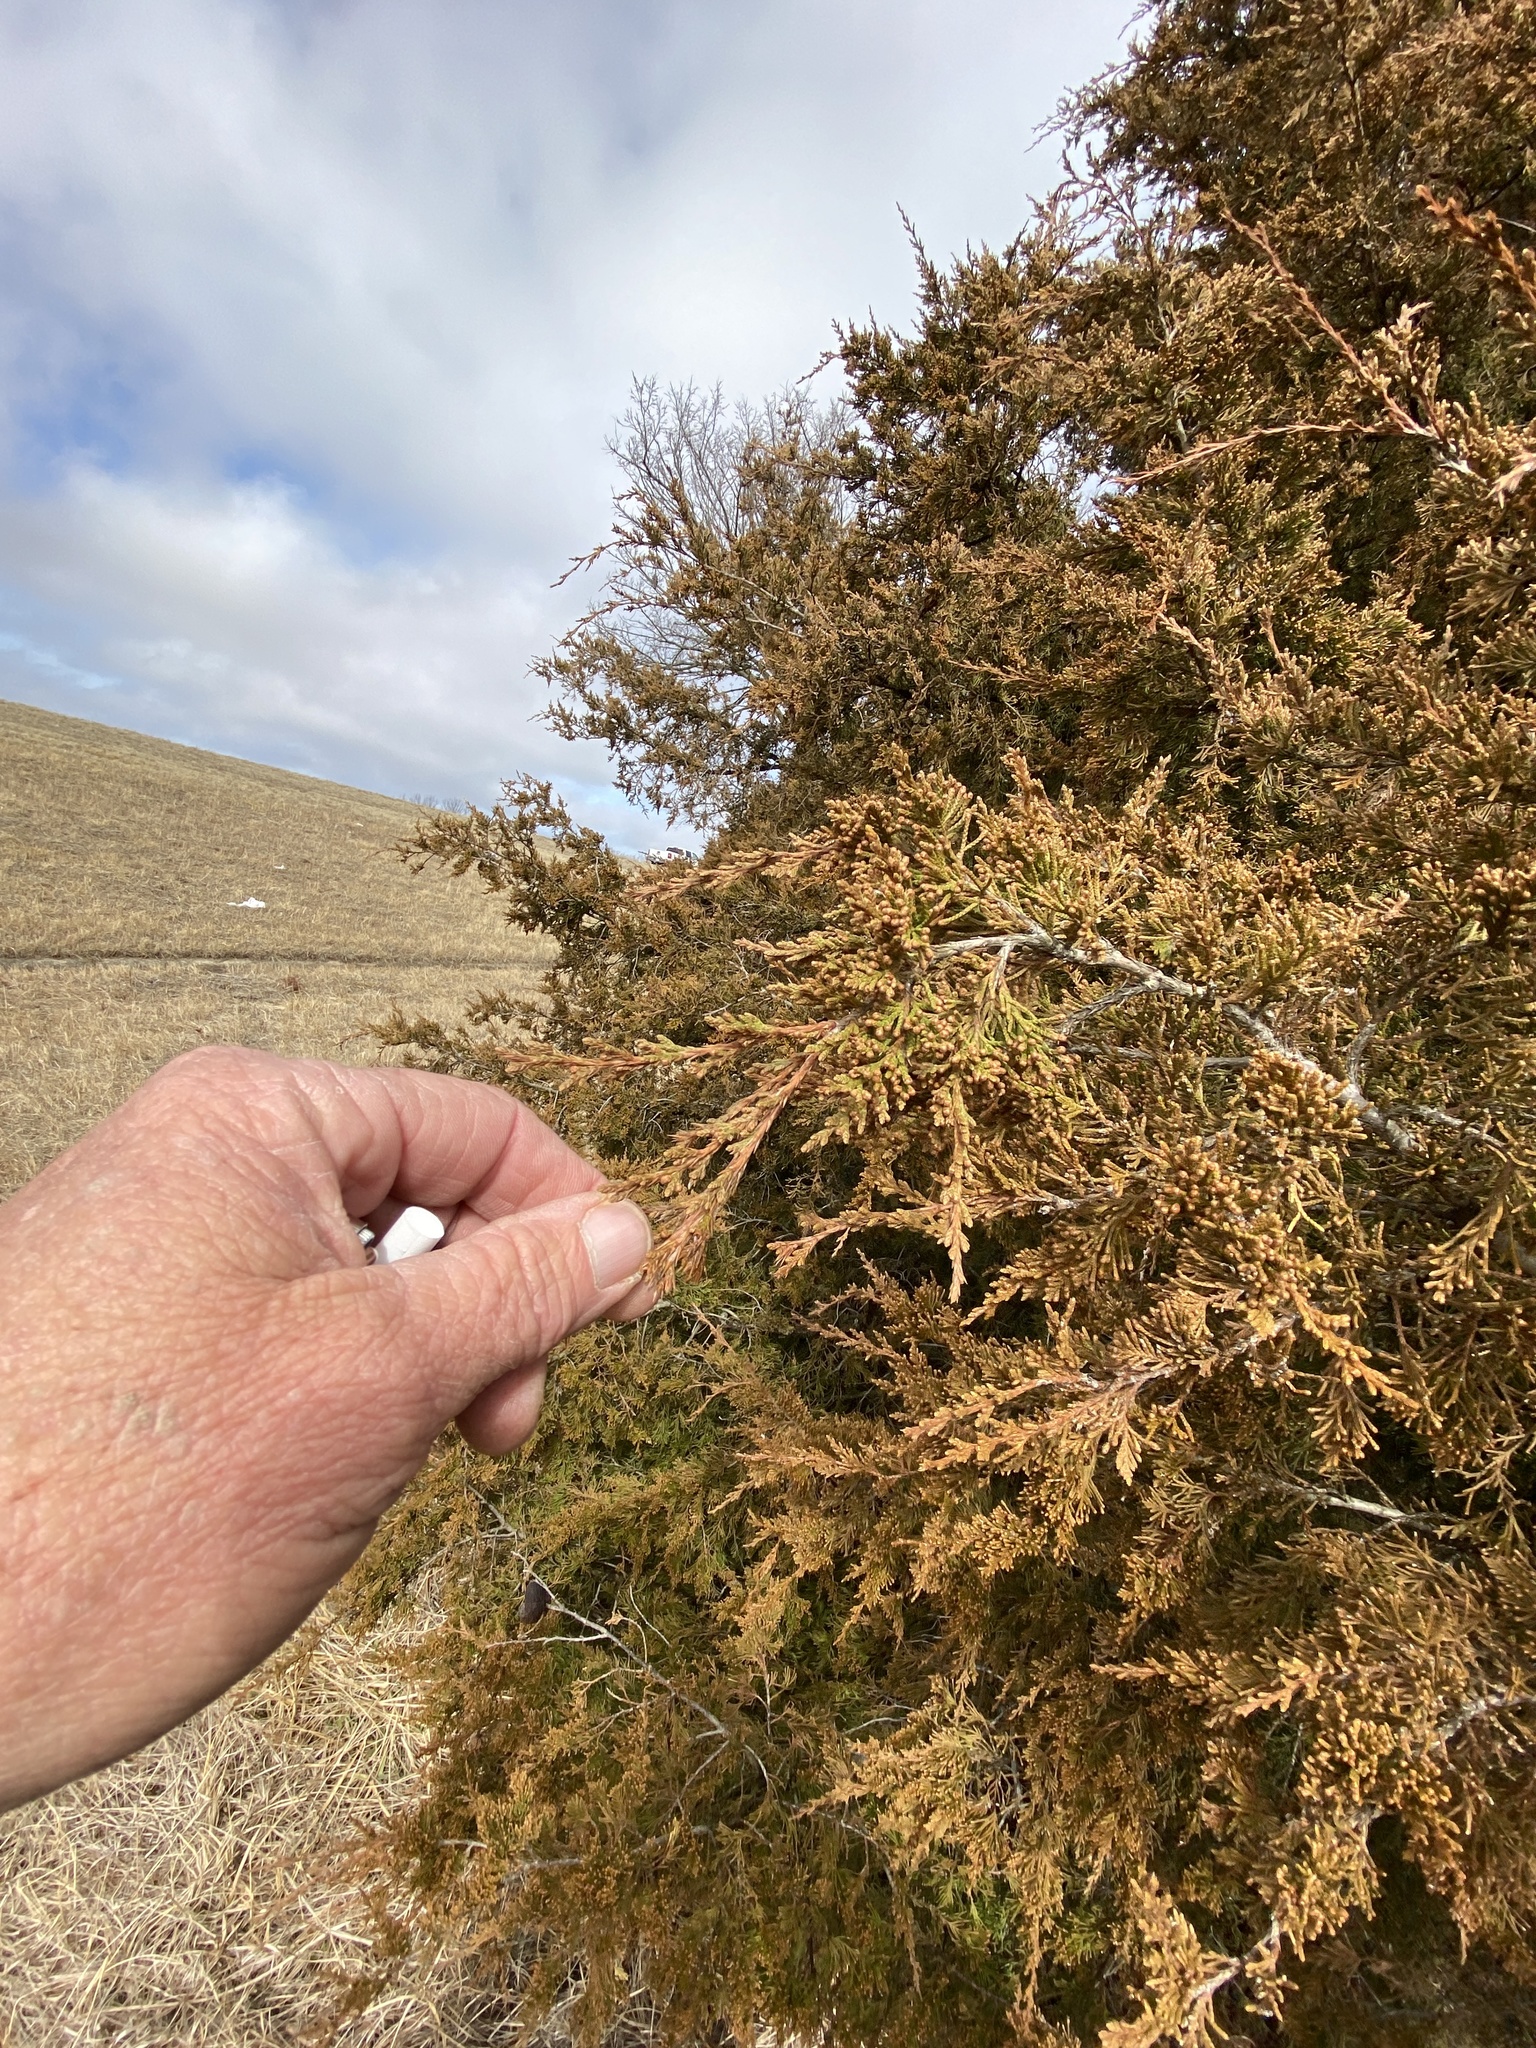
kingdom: Plantae
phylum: Tracheophyta
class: Pinopsida
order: Pinales
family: Cupressaceae
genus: Juniperus
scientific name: Juniperus virginiana
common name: Red juniper
